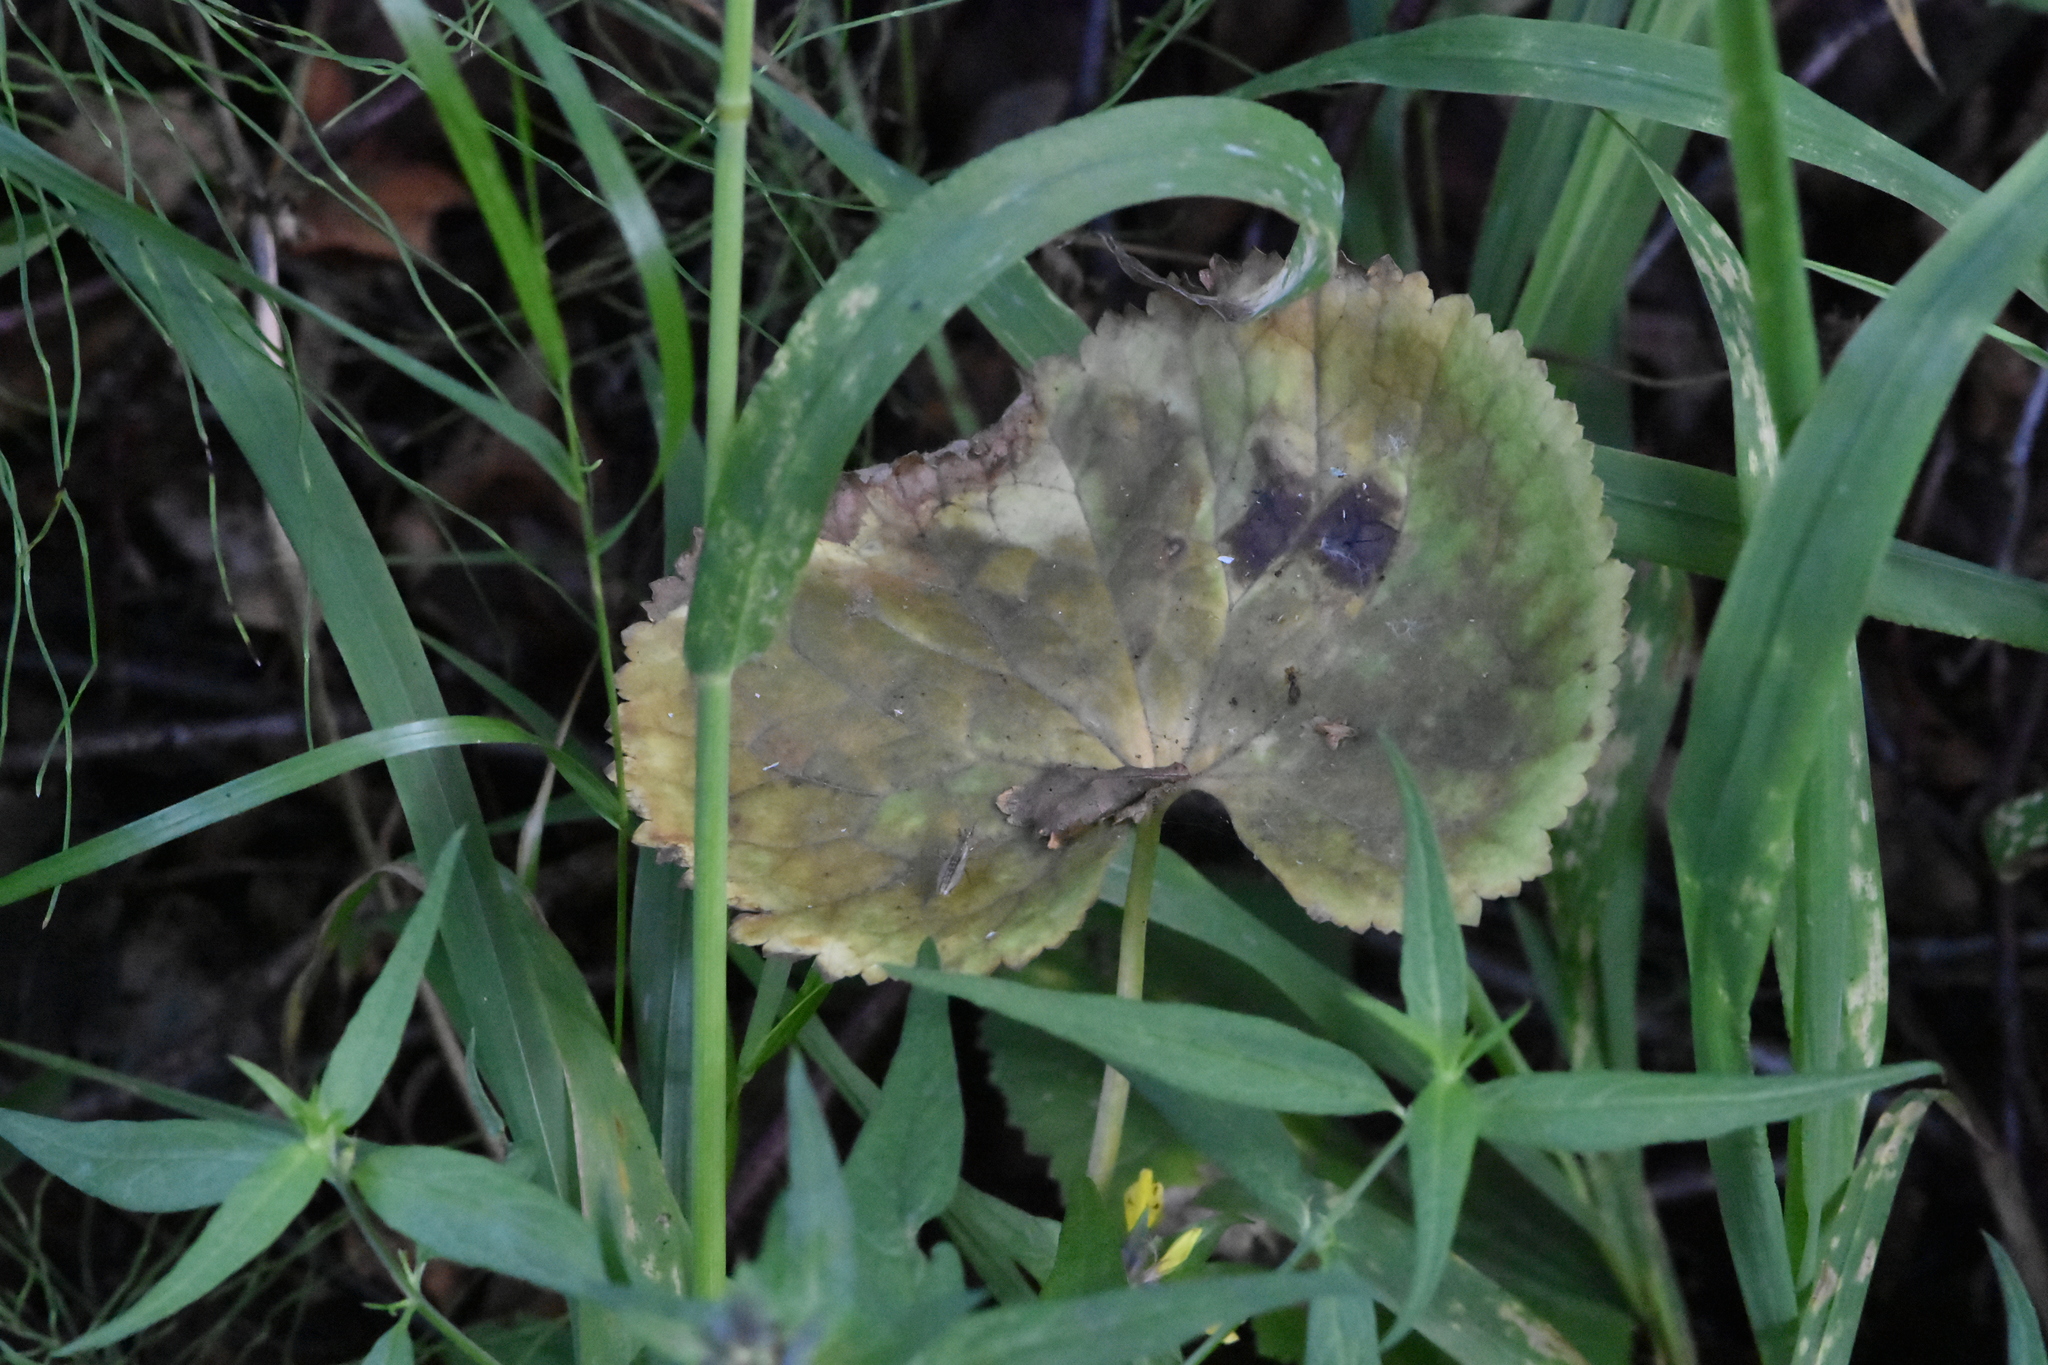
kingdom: Plantae
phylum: Tracheophyta
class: Magnoliopsida
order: Ranunculales
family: Ranunculaceae
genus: Ranunculus
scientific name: Ranunculus cassubicus
